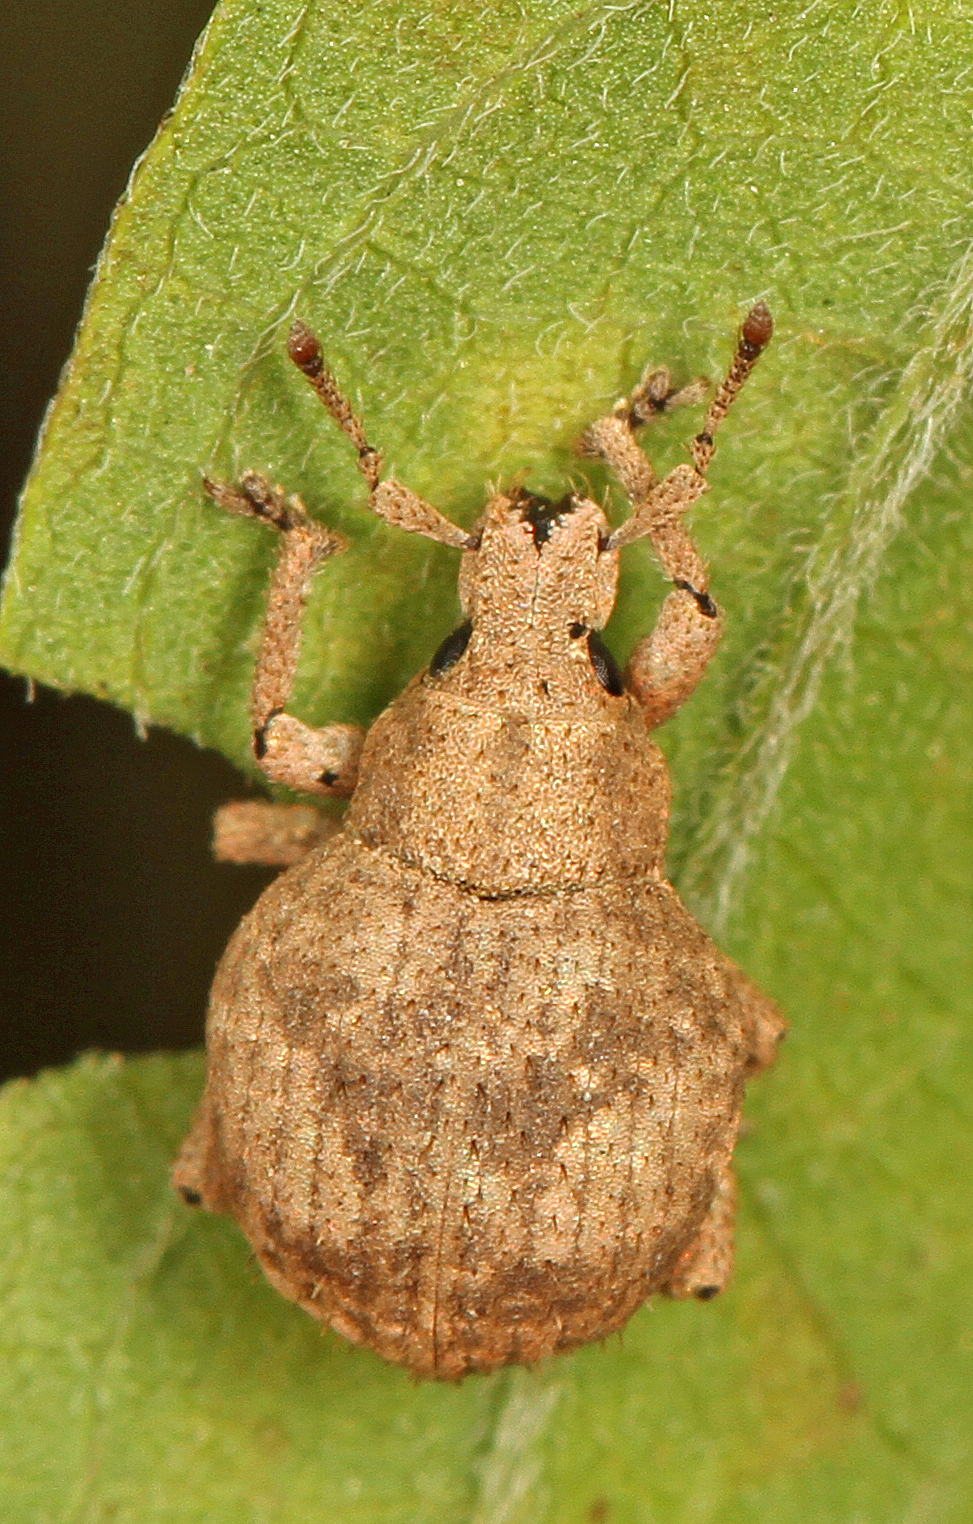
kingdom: Animalia
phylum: Arthropoda
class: Insecta
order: Coleoptera
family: Curculionidae
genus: Pseudocneorhinus
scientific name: Pseudocneorhinus bifasciatus
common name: Two-banded japanese weevil
